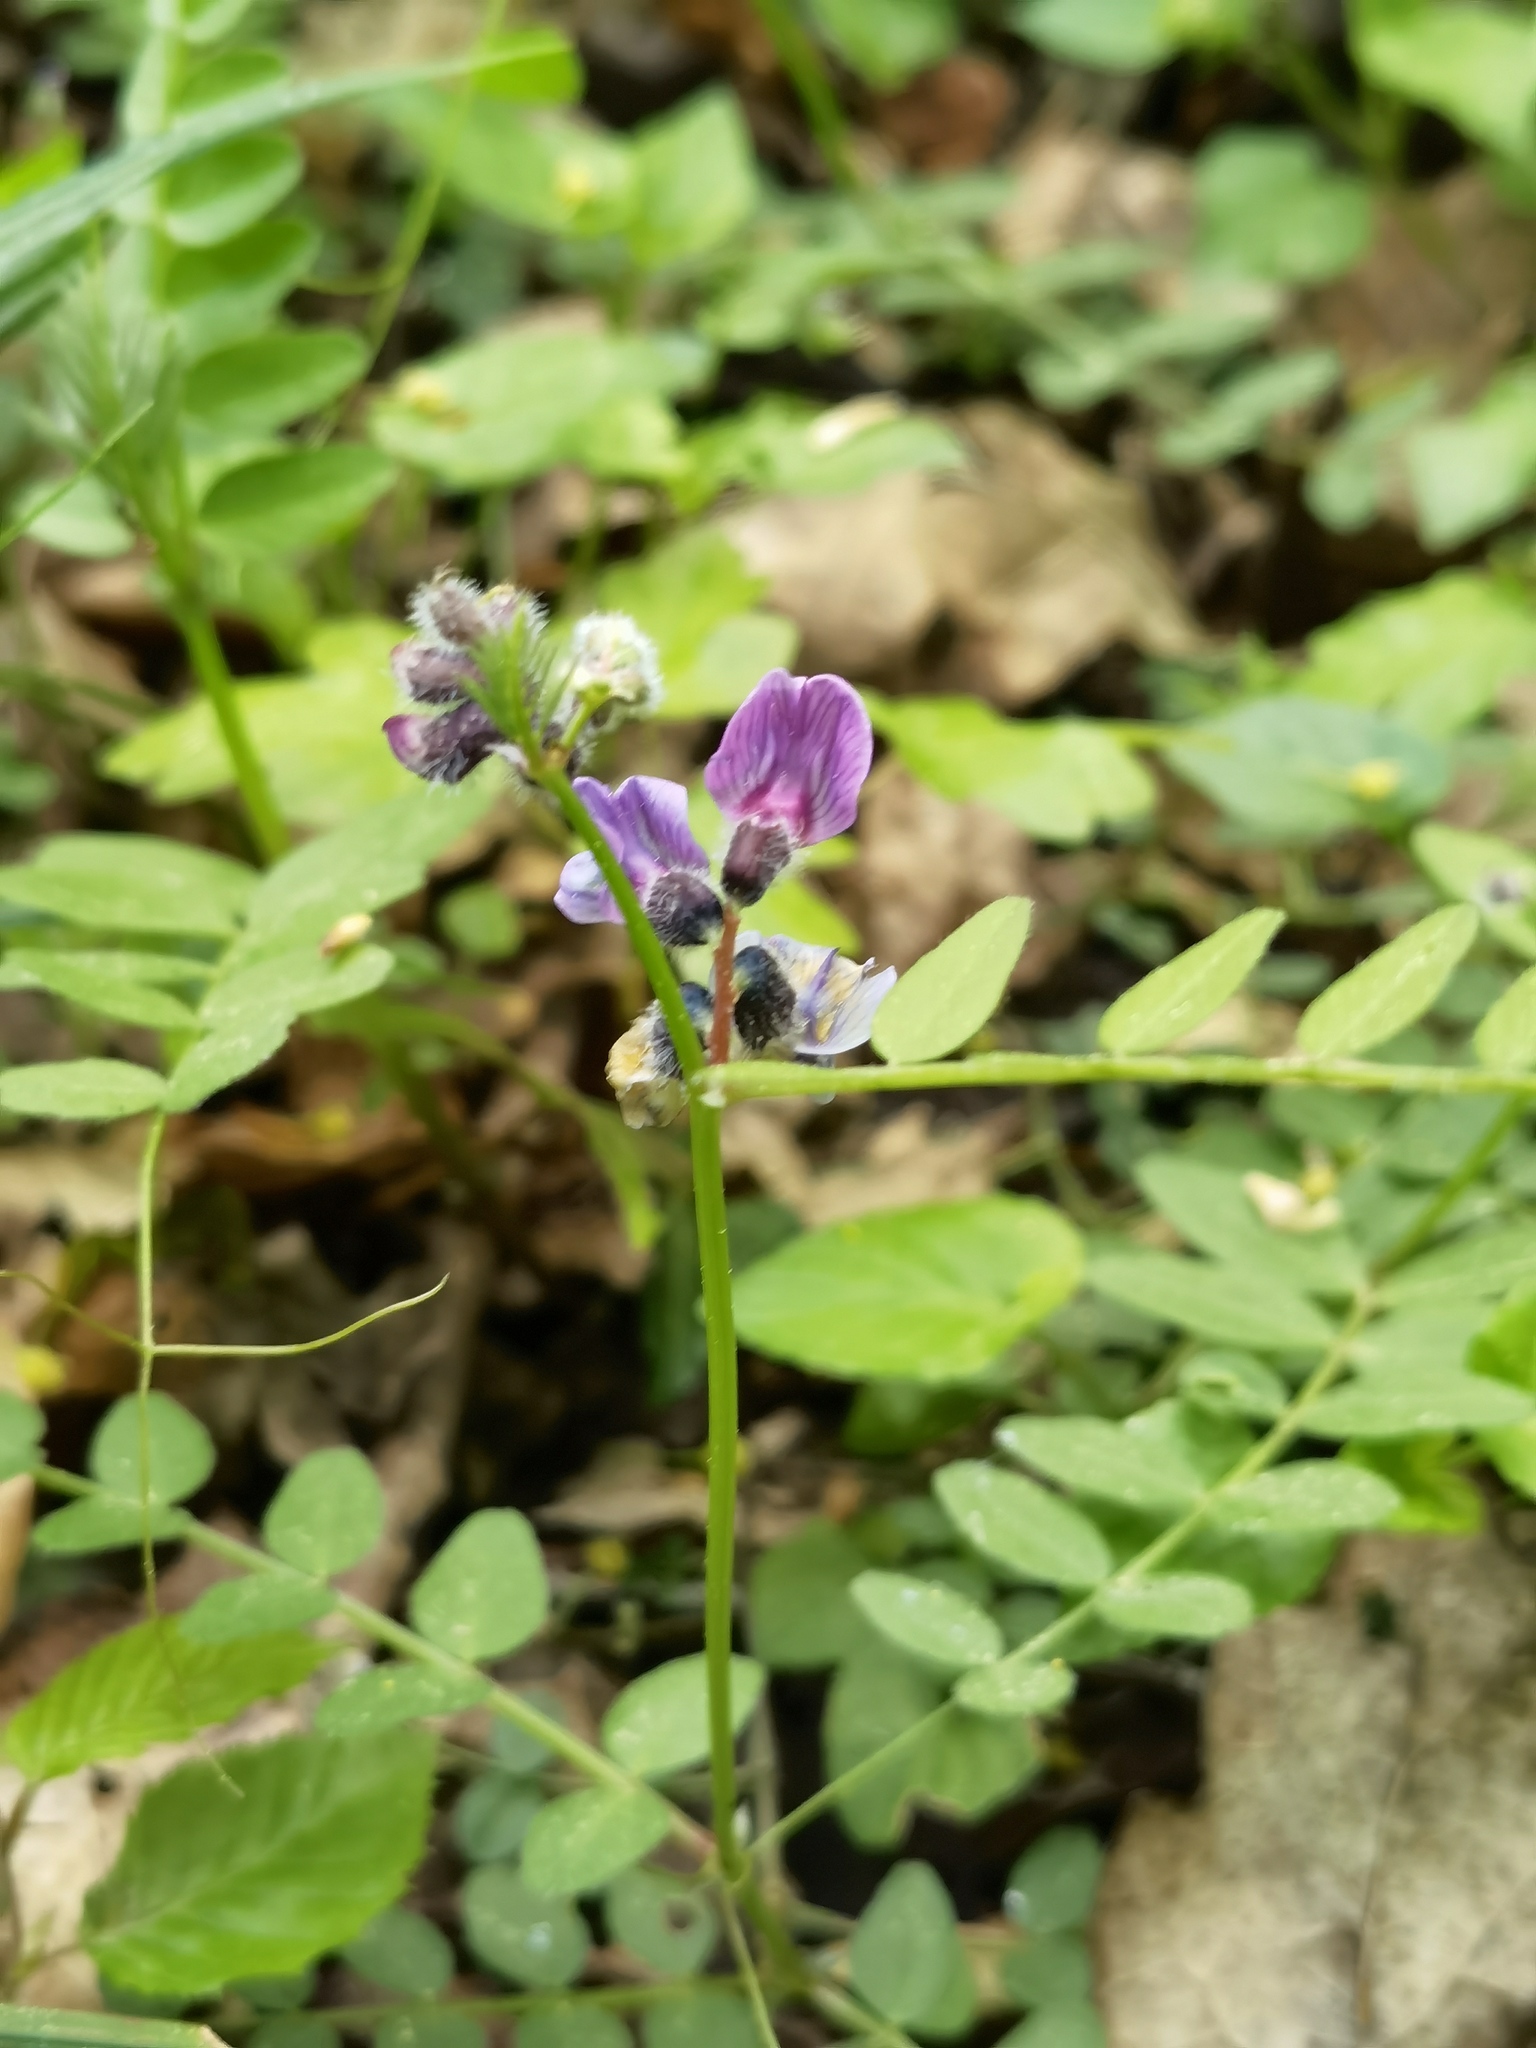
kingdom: Plantae
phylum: Tracheophyta
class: Magnoliopsida
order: Fabales
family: Fabaceae
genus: Vicia
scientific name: Vicia sepium
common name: Bush vetch
